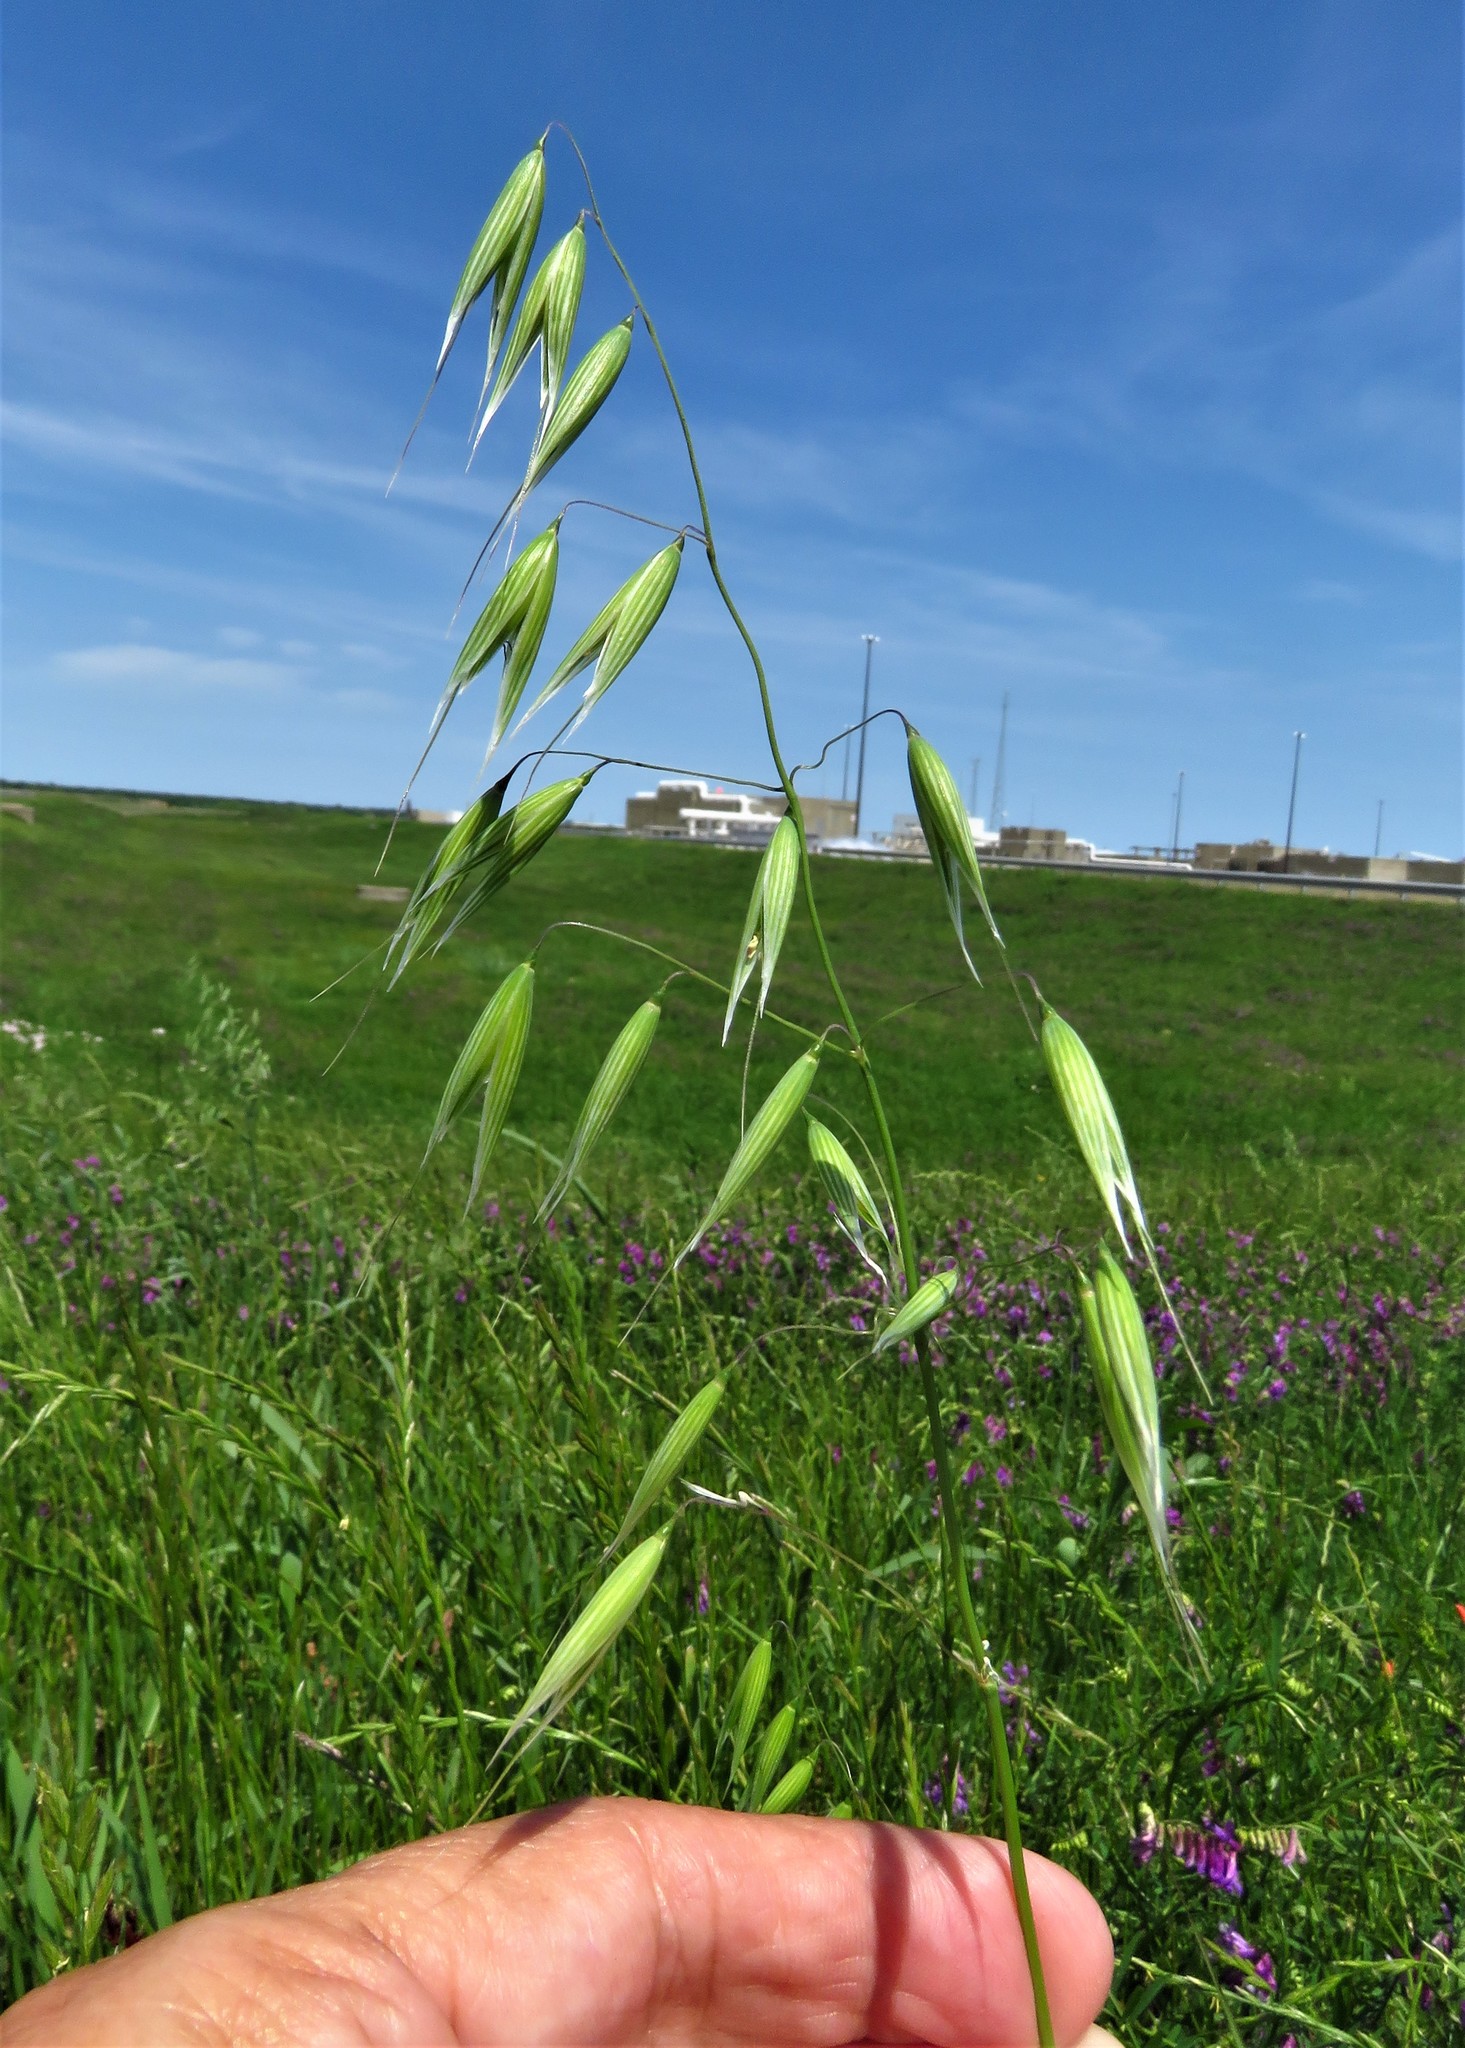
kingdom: Plantae
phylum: Tracheophyta
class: Liliopsida
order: Poales
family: Poaceae
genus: Avena
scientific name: Avena fatua
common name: Wild oat
